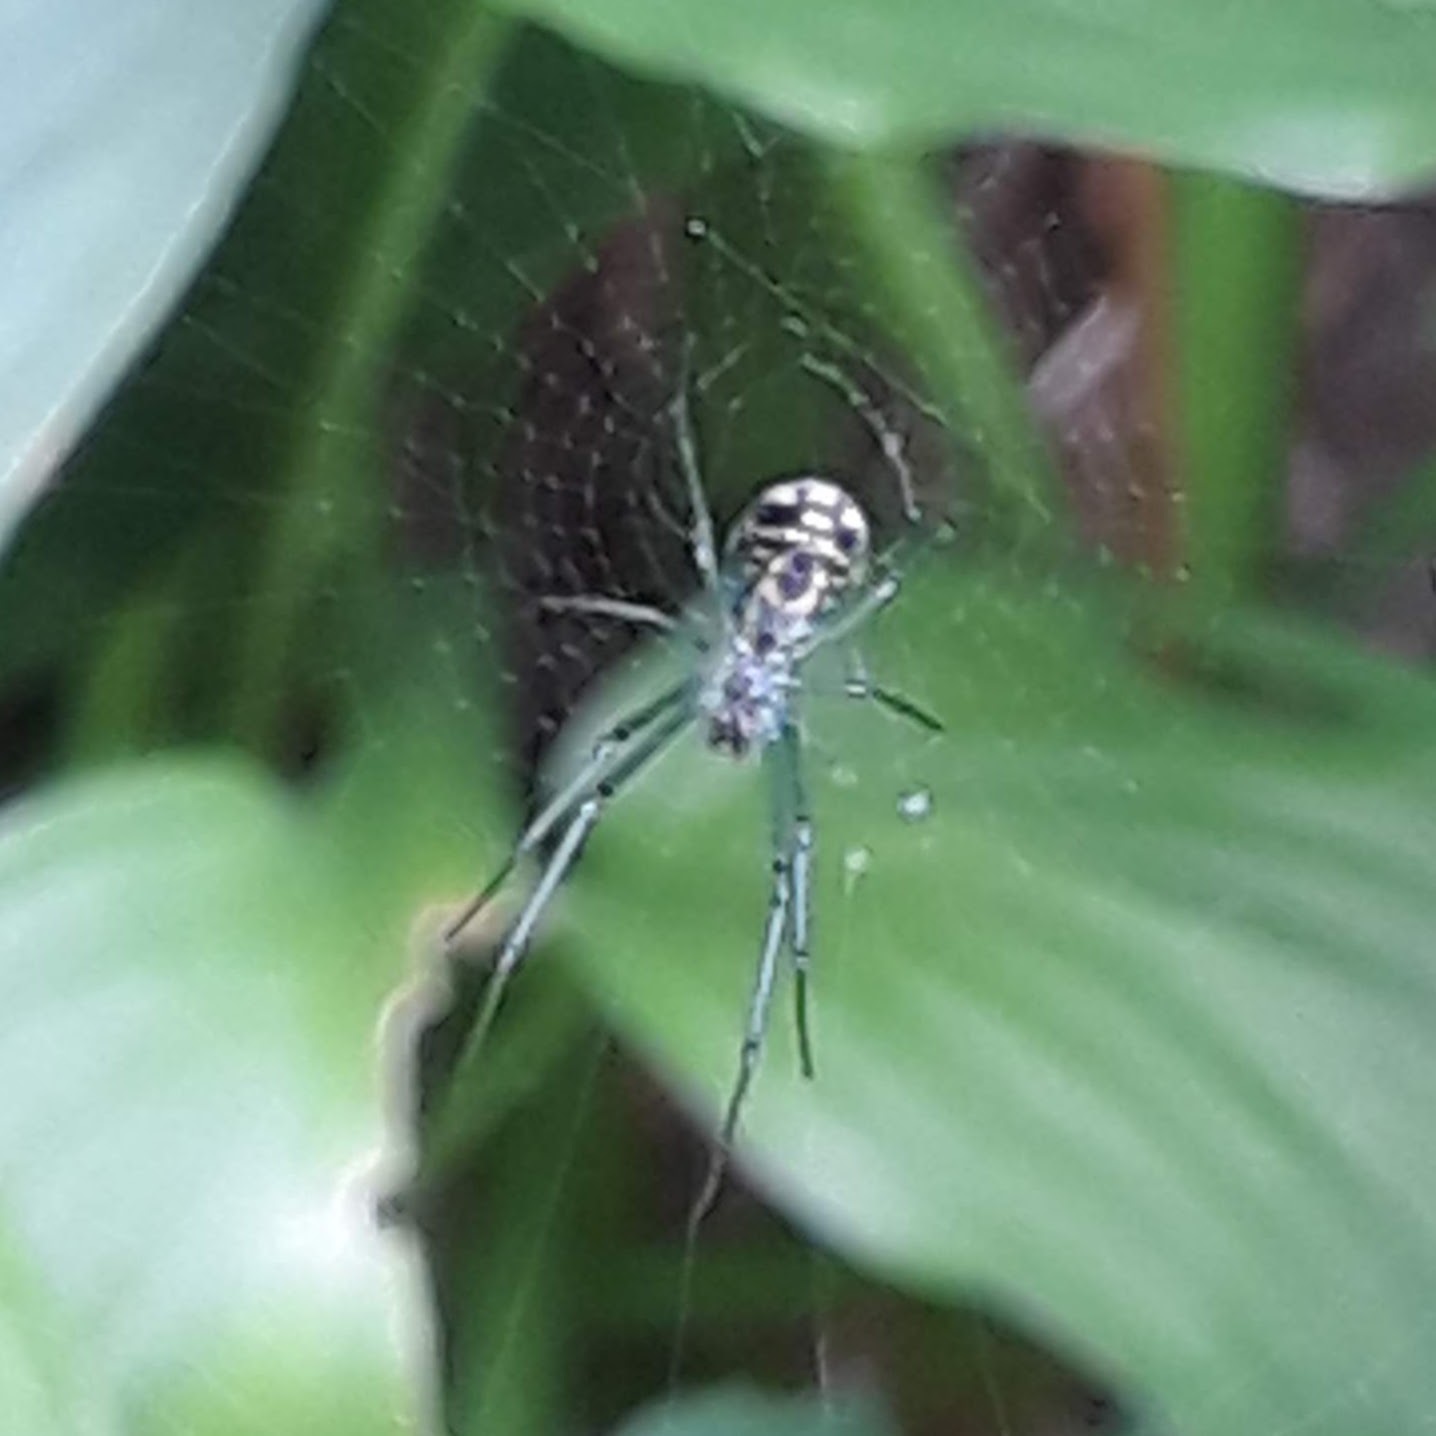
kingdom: Animalia
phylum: Arthropoda
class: Arachnida
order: Araneae
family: Tetragnathidae
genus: Leucauge
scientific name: Leucauge venusta
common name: Longjawed orb weavers
